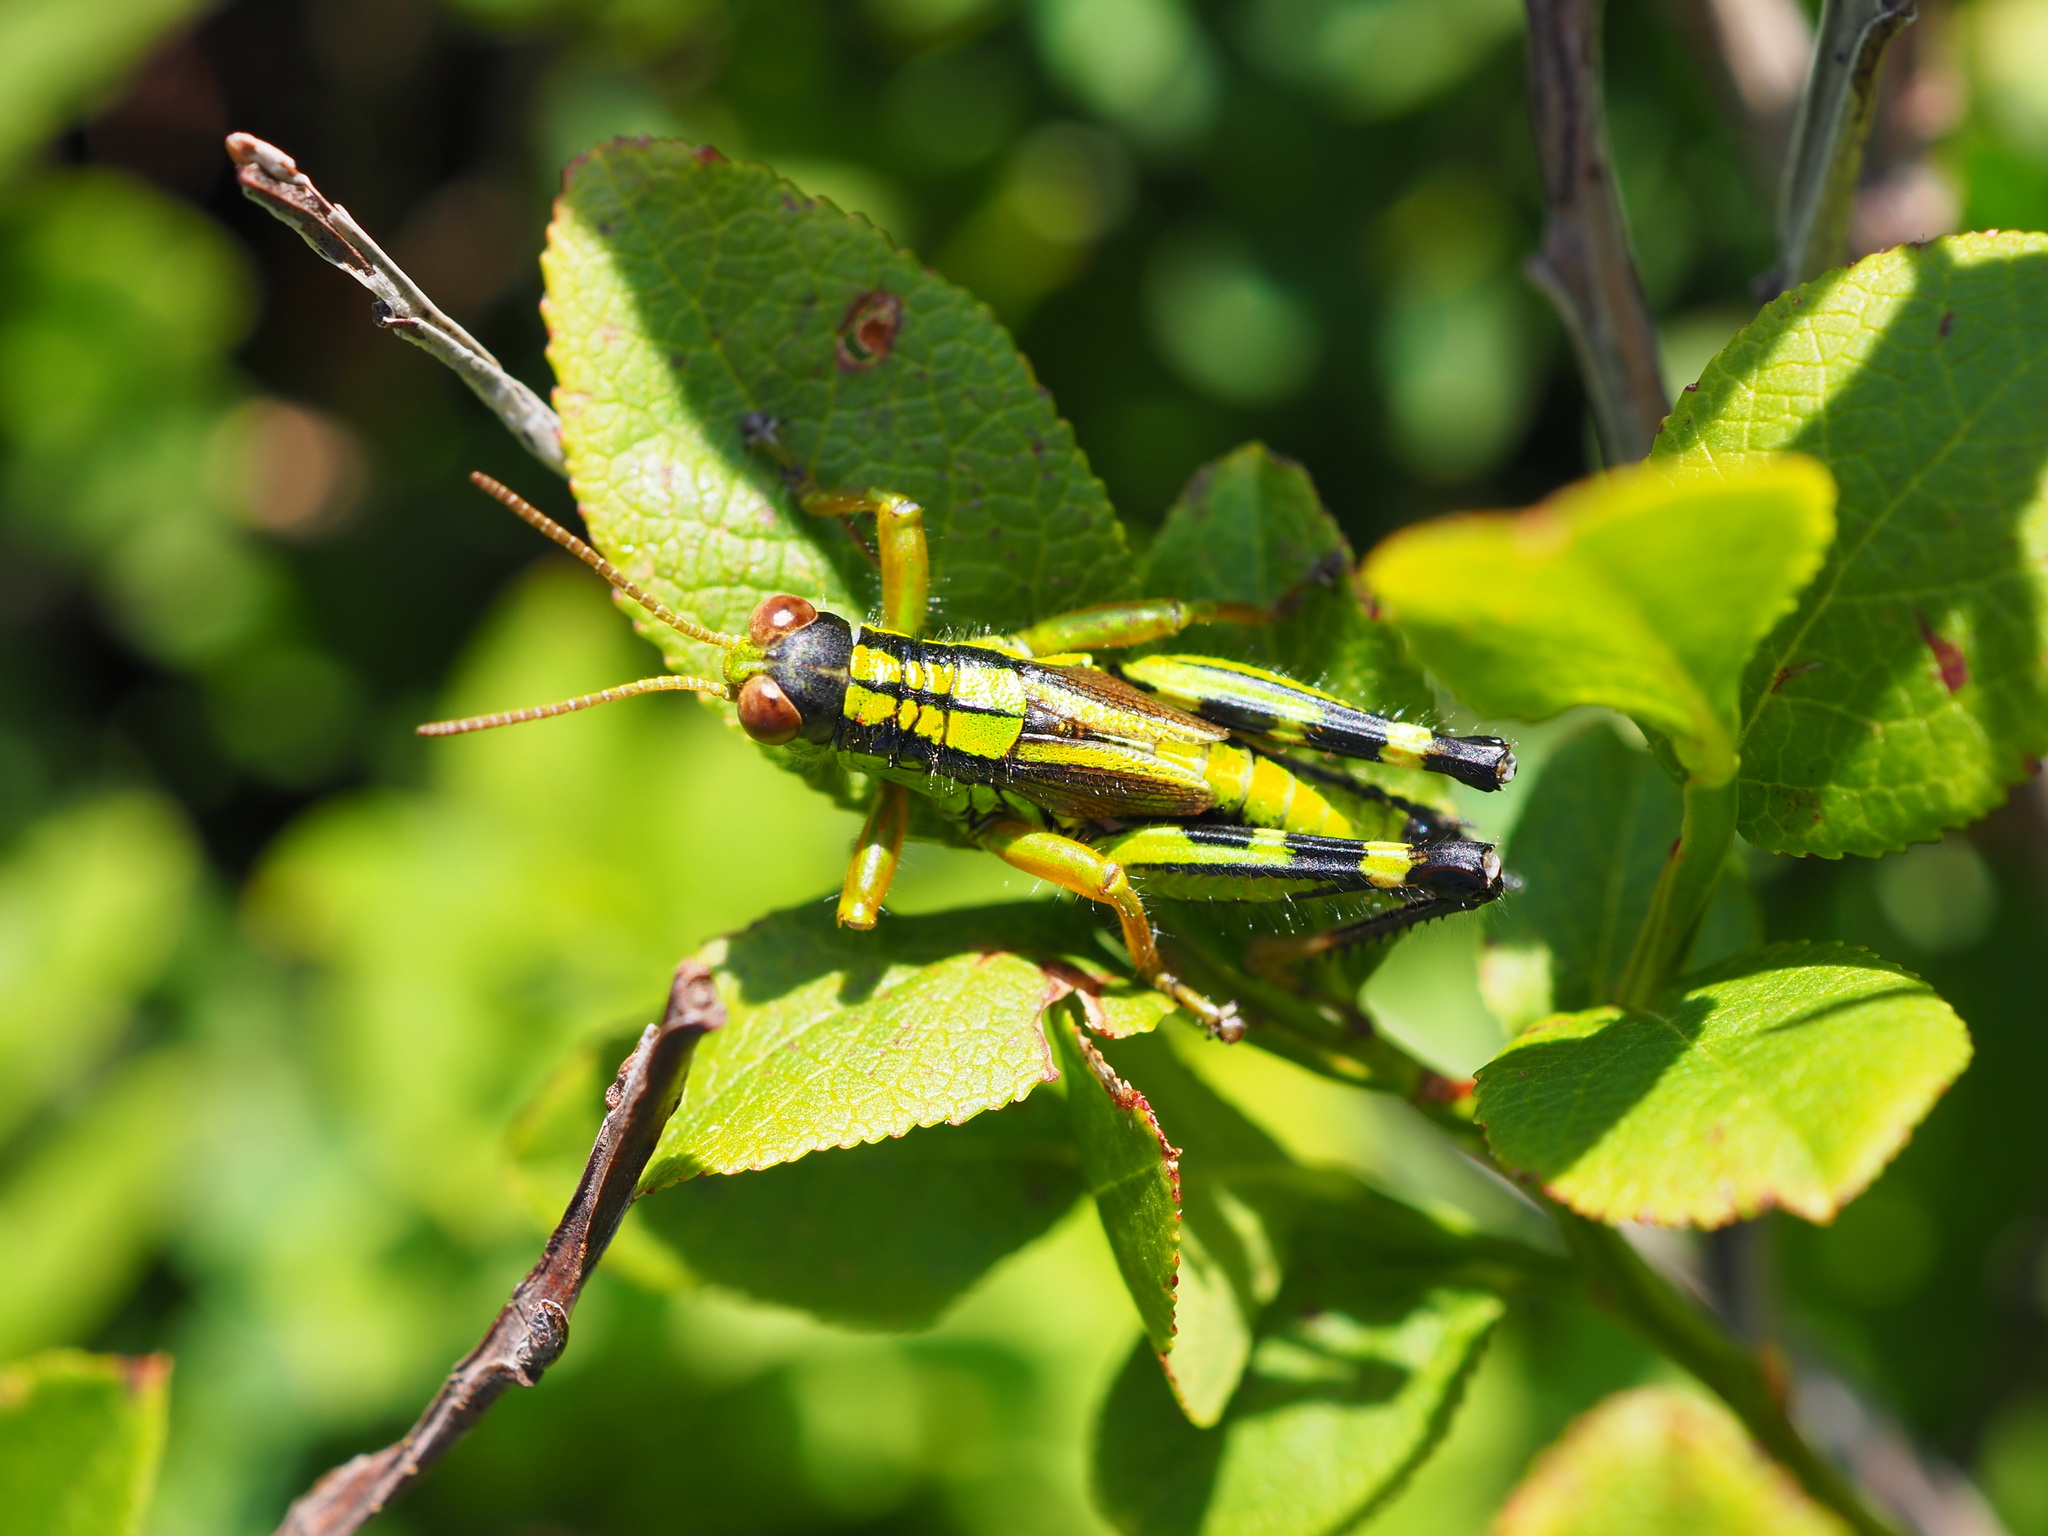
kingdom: Animalia
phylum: Arthropoda
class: Insecta
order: Orthoptera
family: Acrididae
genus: Miramella
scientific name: Miramella frinias
